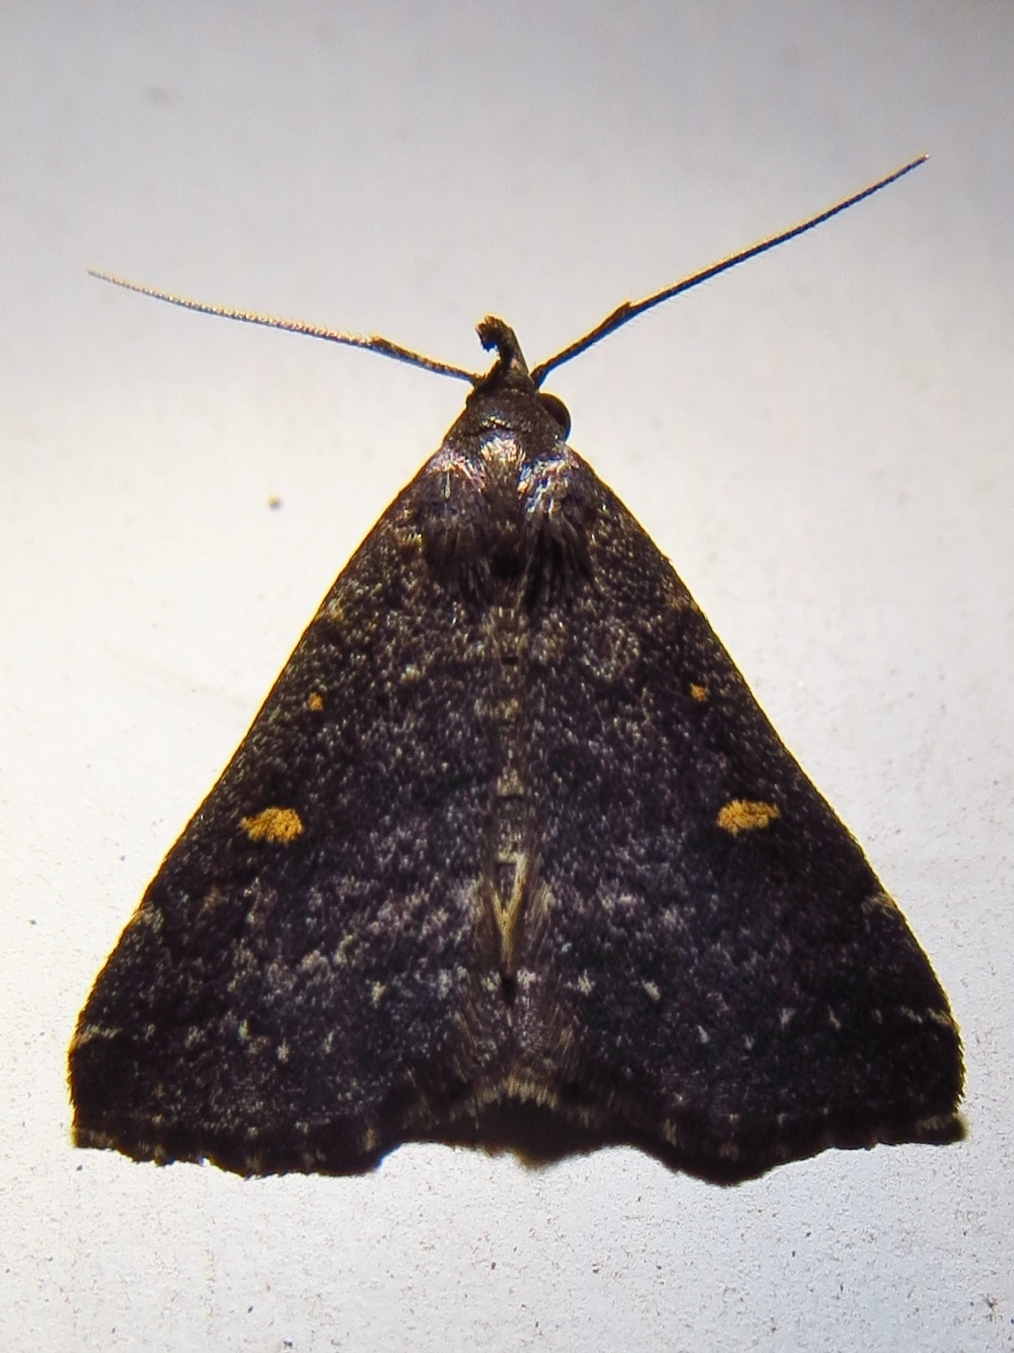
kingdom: Animalia
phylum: Arthropoda
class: Insecta
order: Lepidoptera
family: Erebidae
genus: Tetanolita
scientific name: Tetanolita mynesalis
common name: Smoky tetanolita moth
